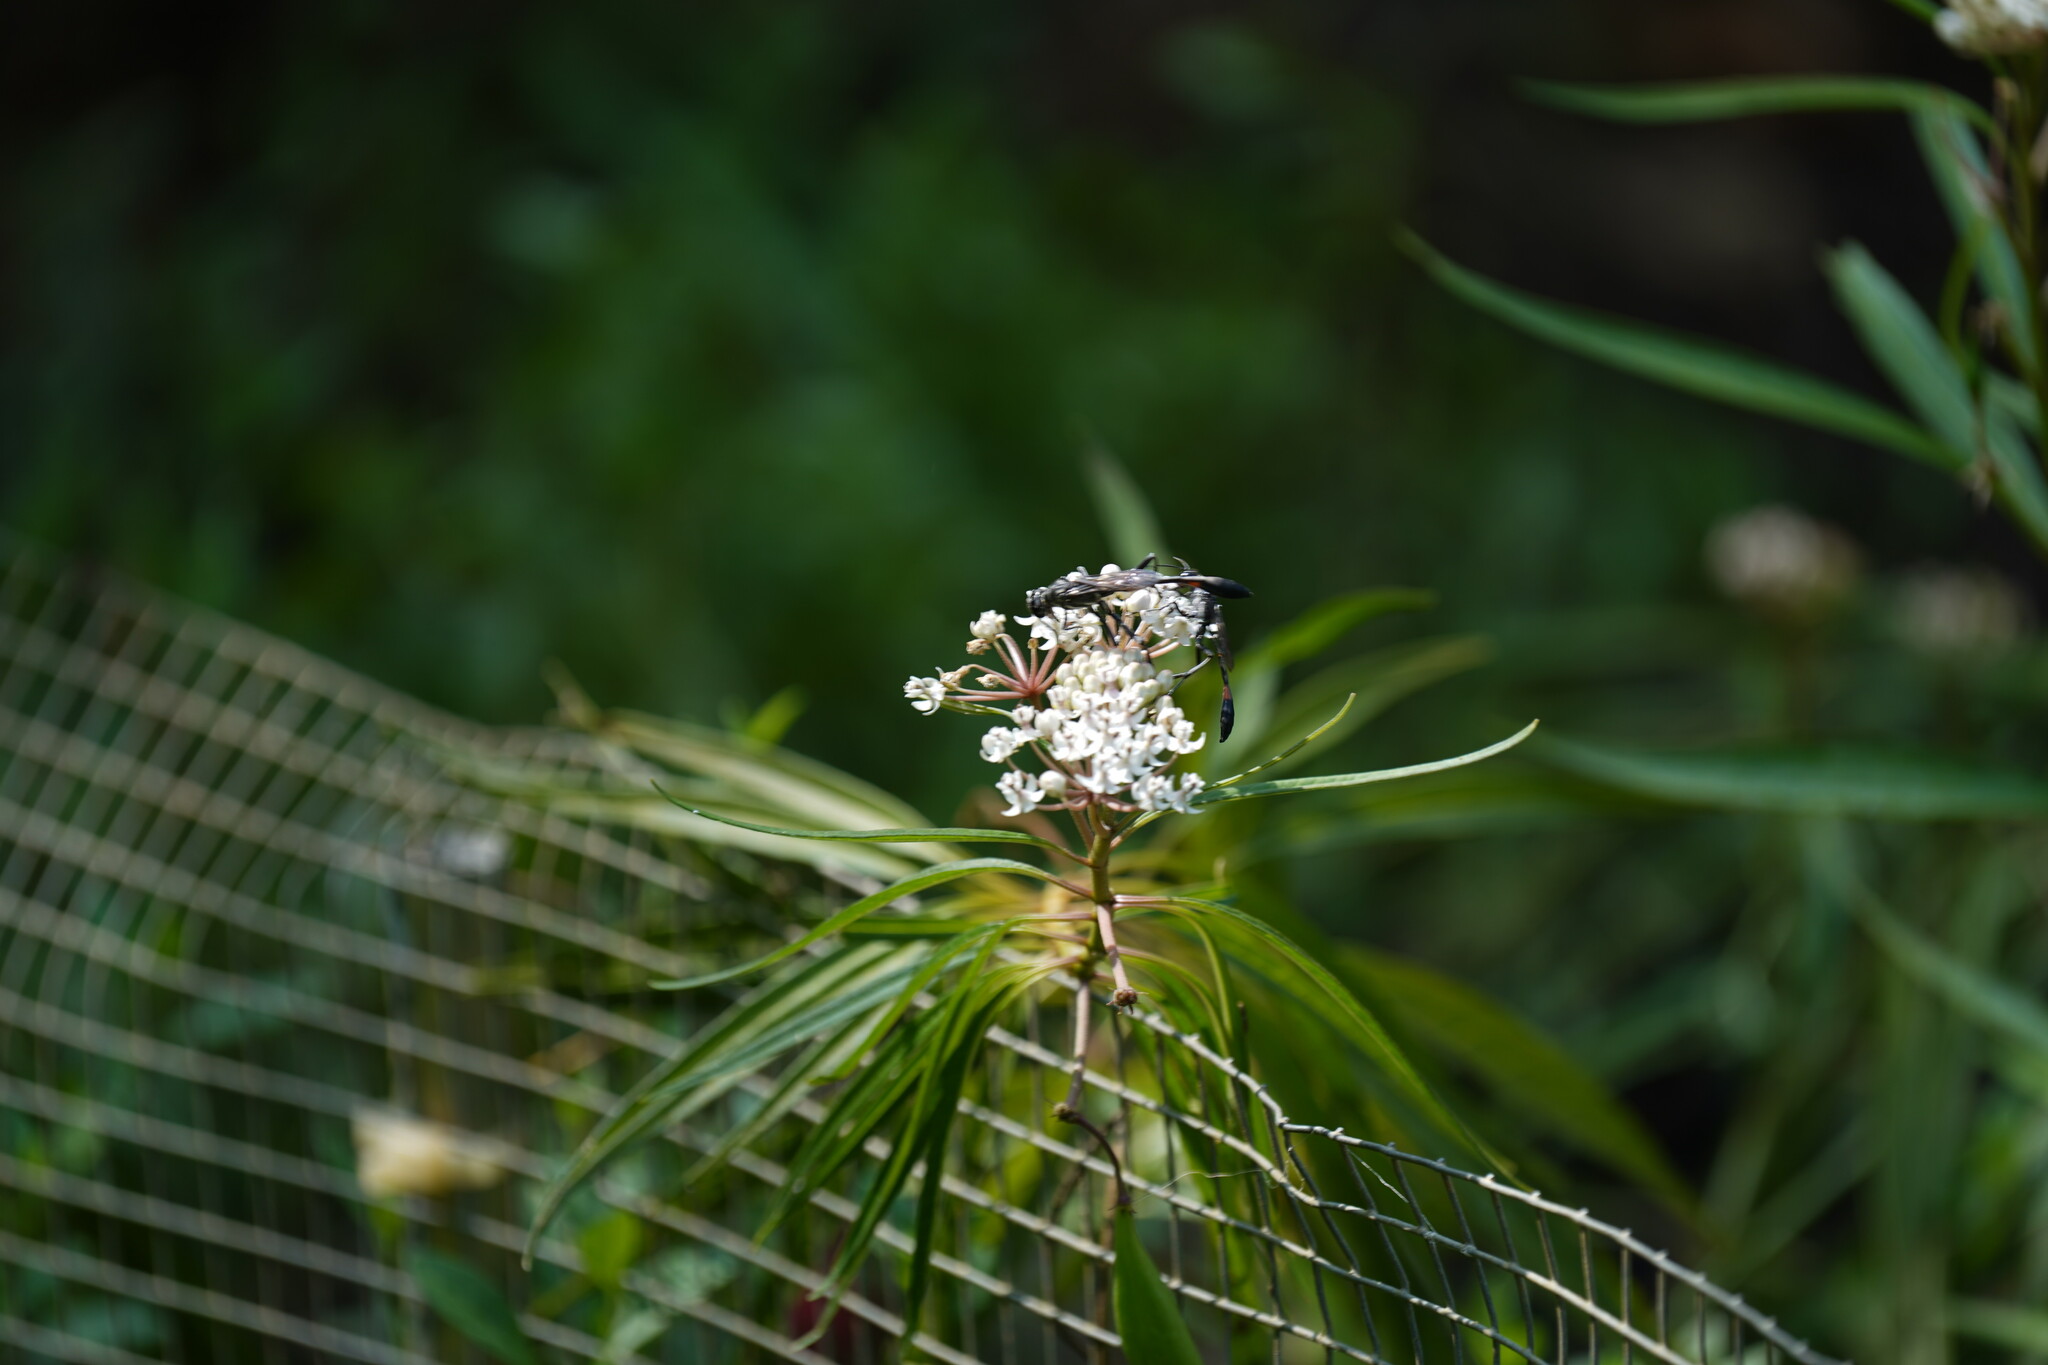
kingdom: Plantae
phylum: Tracheophyta
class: Magnoliopsida
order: Gentianales
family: Apocynaceae
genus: Asclepias
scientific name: Asclepias perennis
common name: Smooth-seed milkweed
